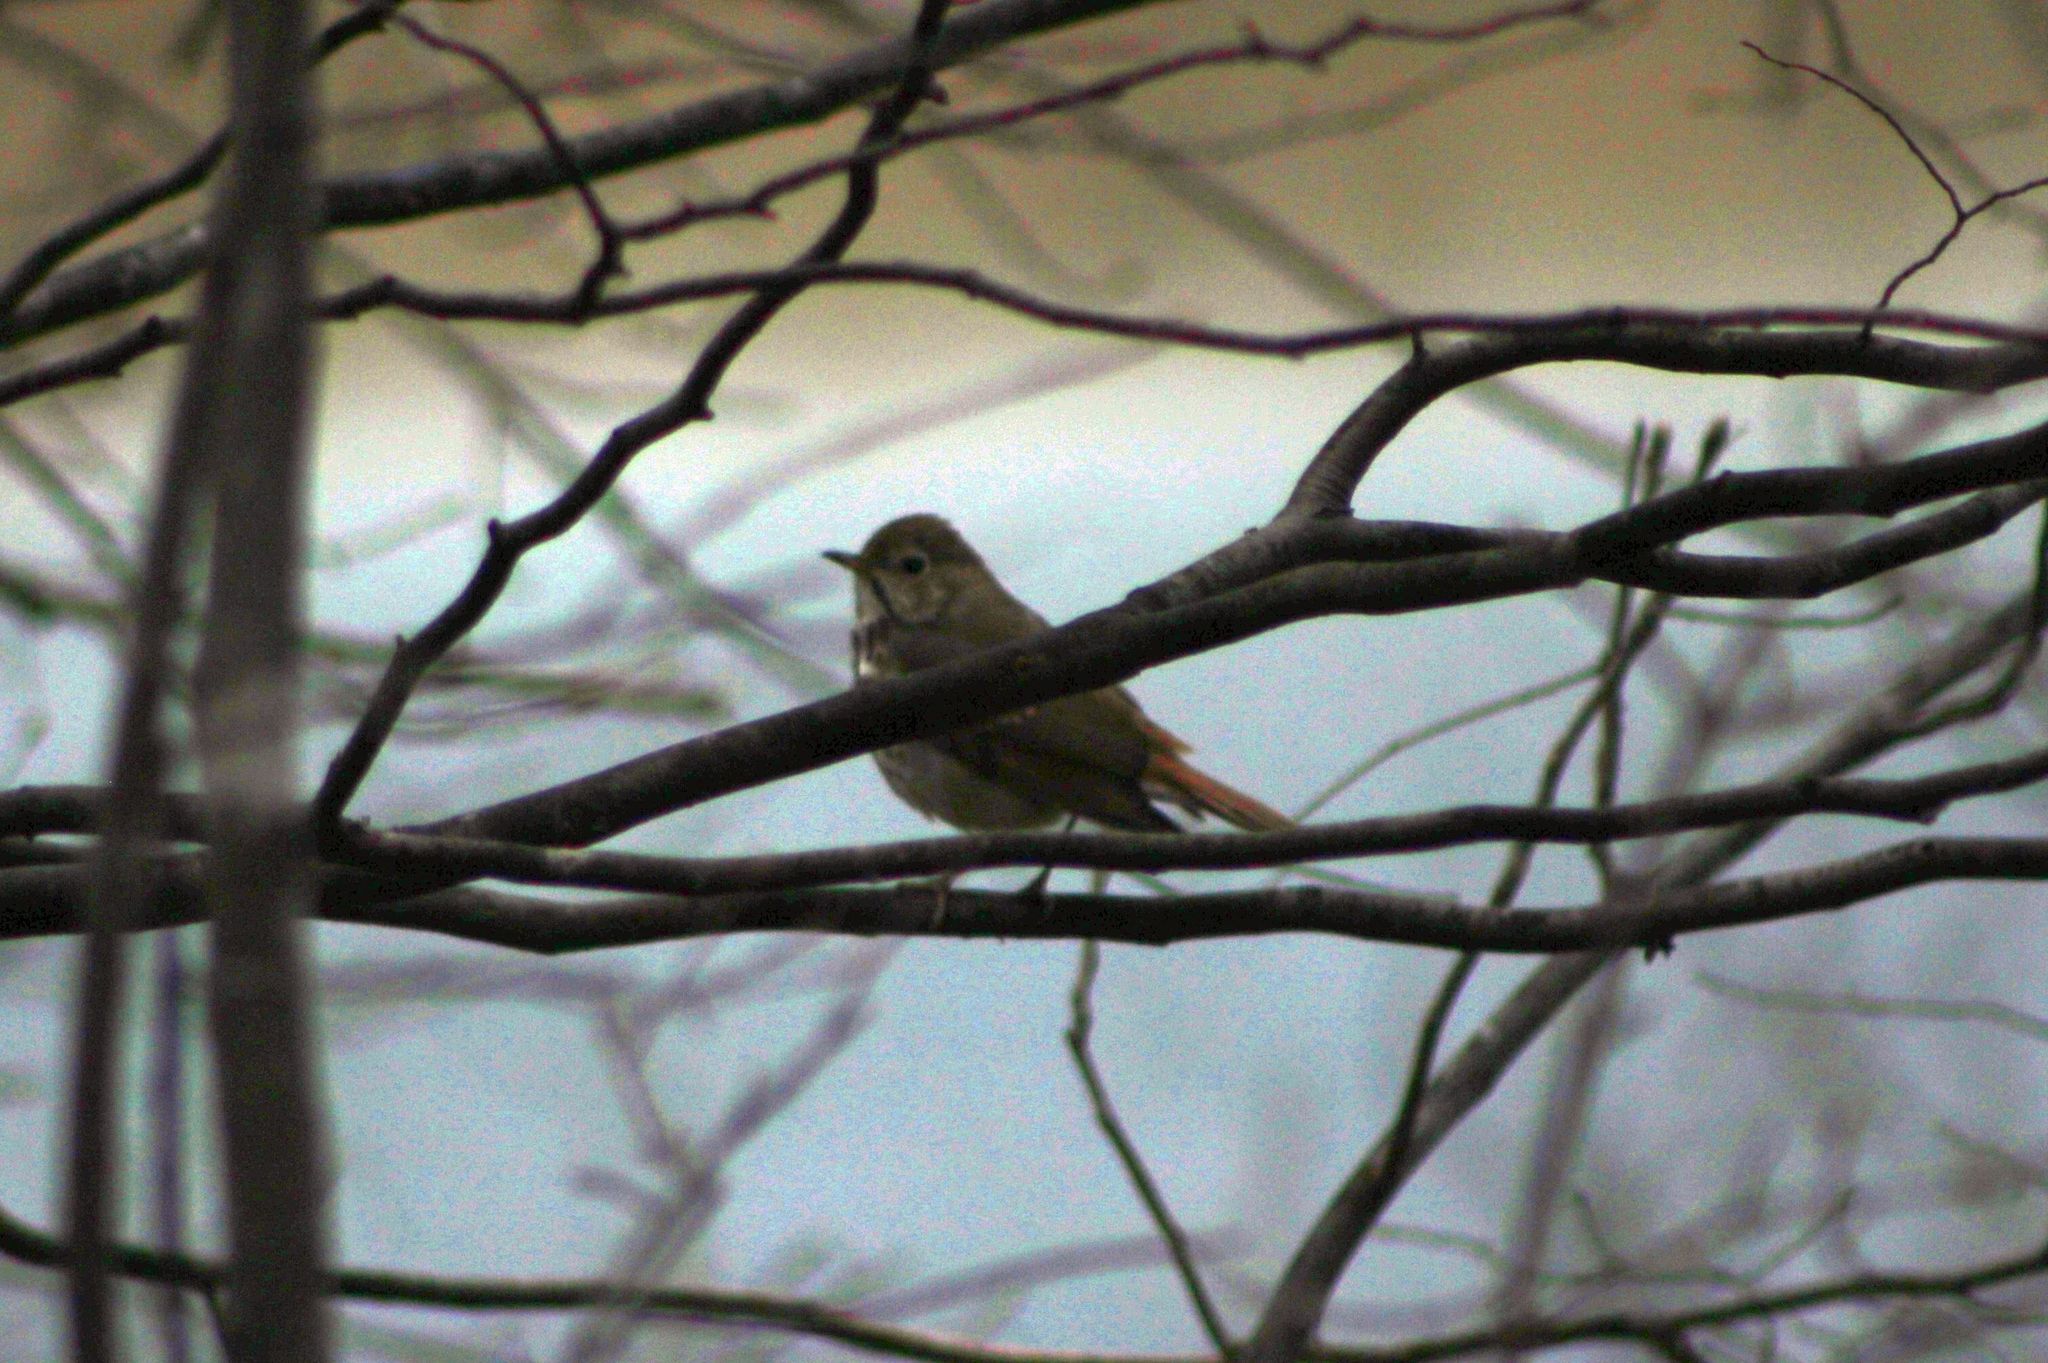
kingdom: Animalia
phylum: Chordata
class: Aves
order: Passeriformes
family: Turdidae
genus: Catharus
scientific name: Catharus guttatus
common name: Hermit thrush
